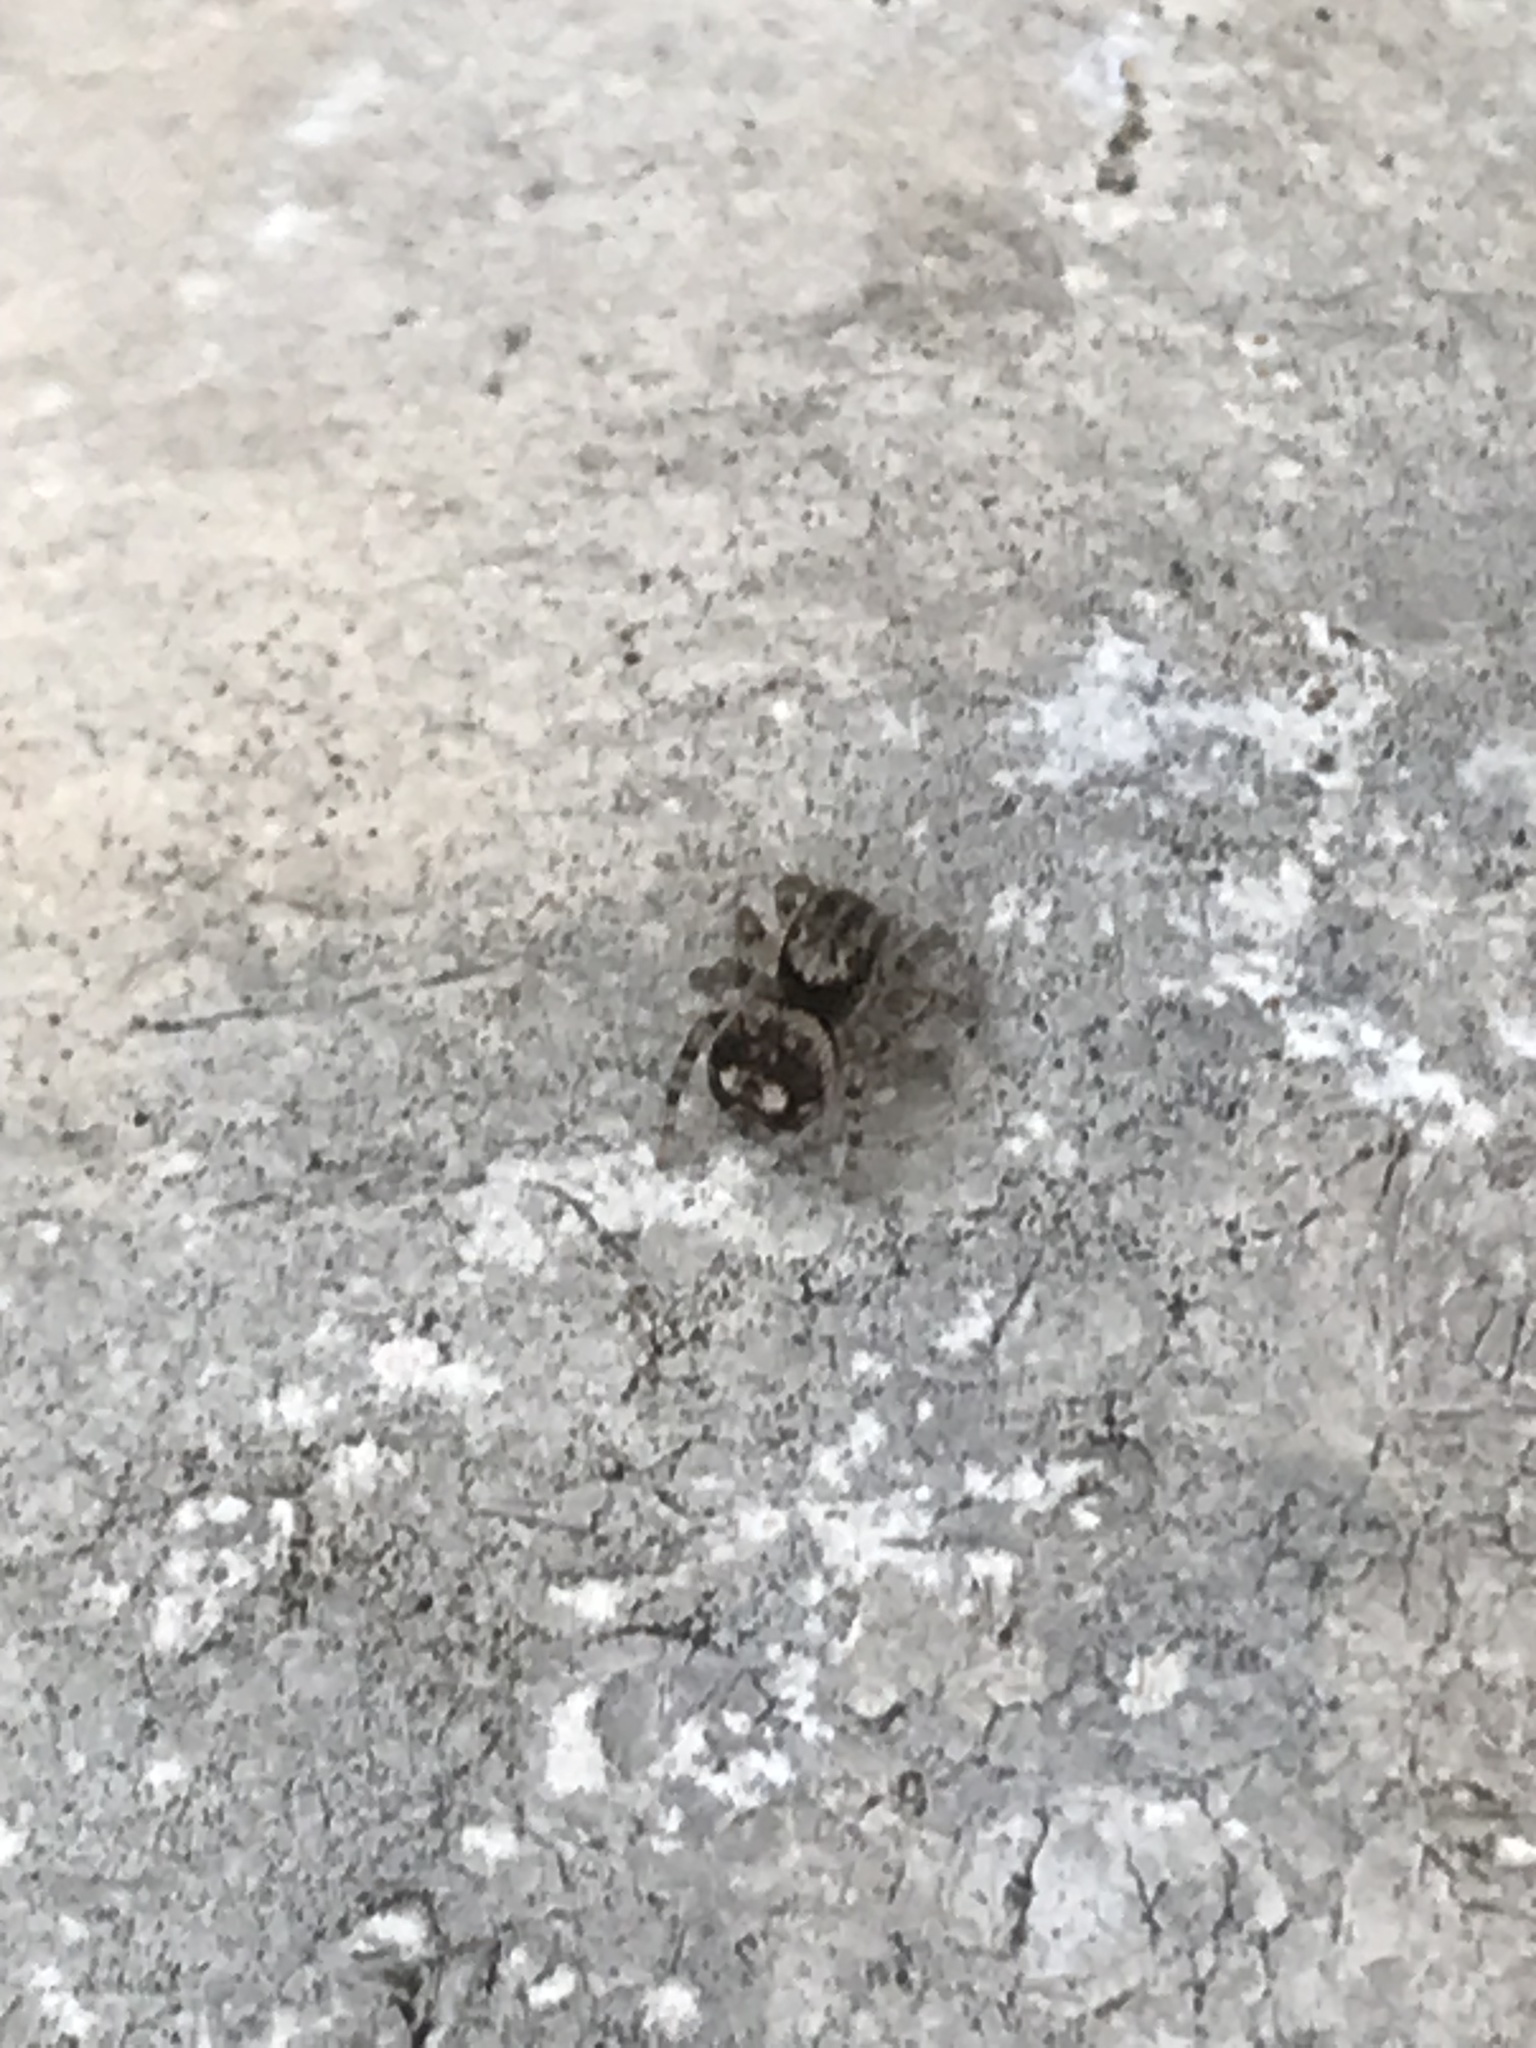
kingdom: Animalia
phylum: Arthropoda
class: Arachnida
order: Araneae
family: Salticidae
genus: Naphrys
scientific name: Naphrys acerba
